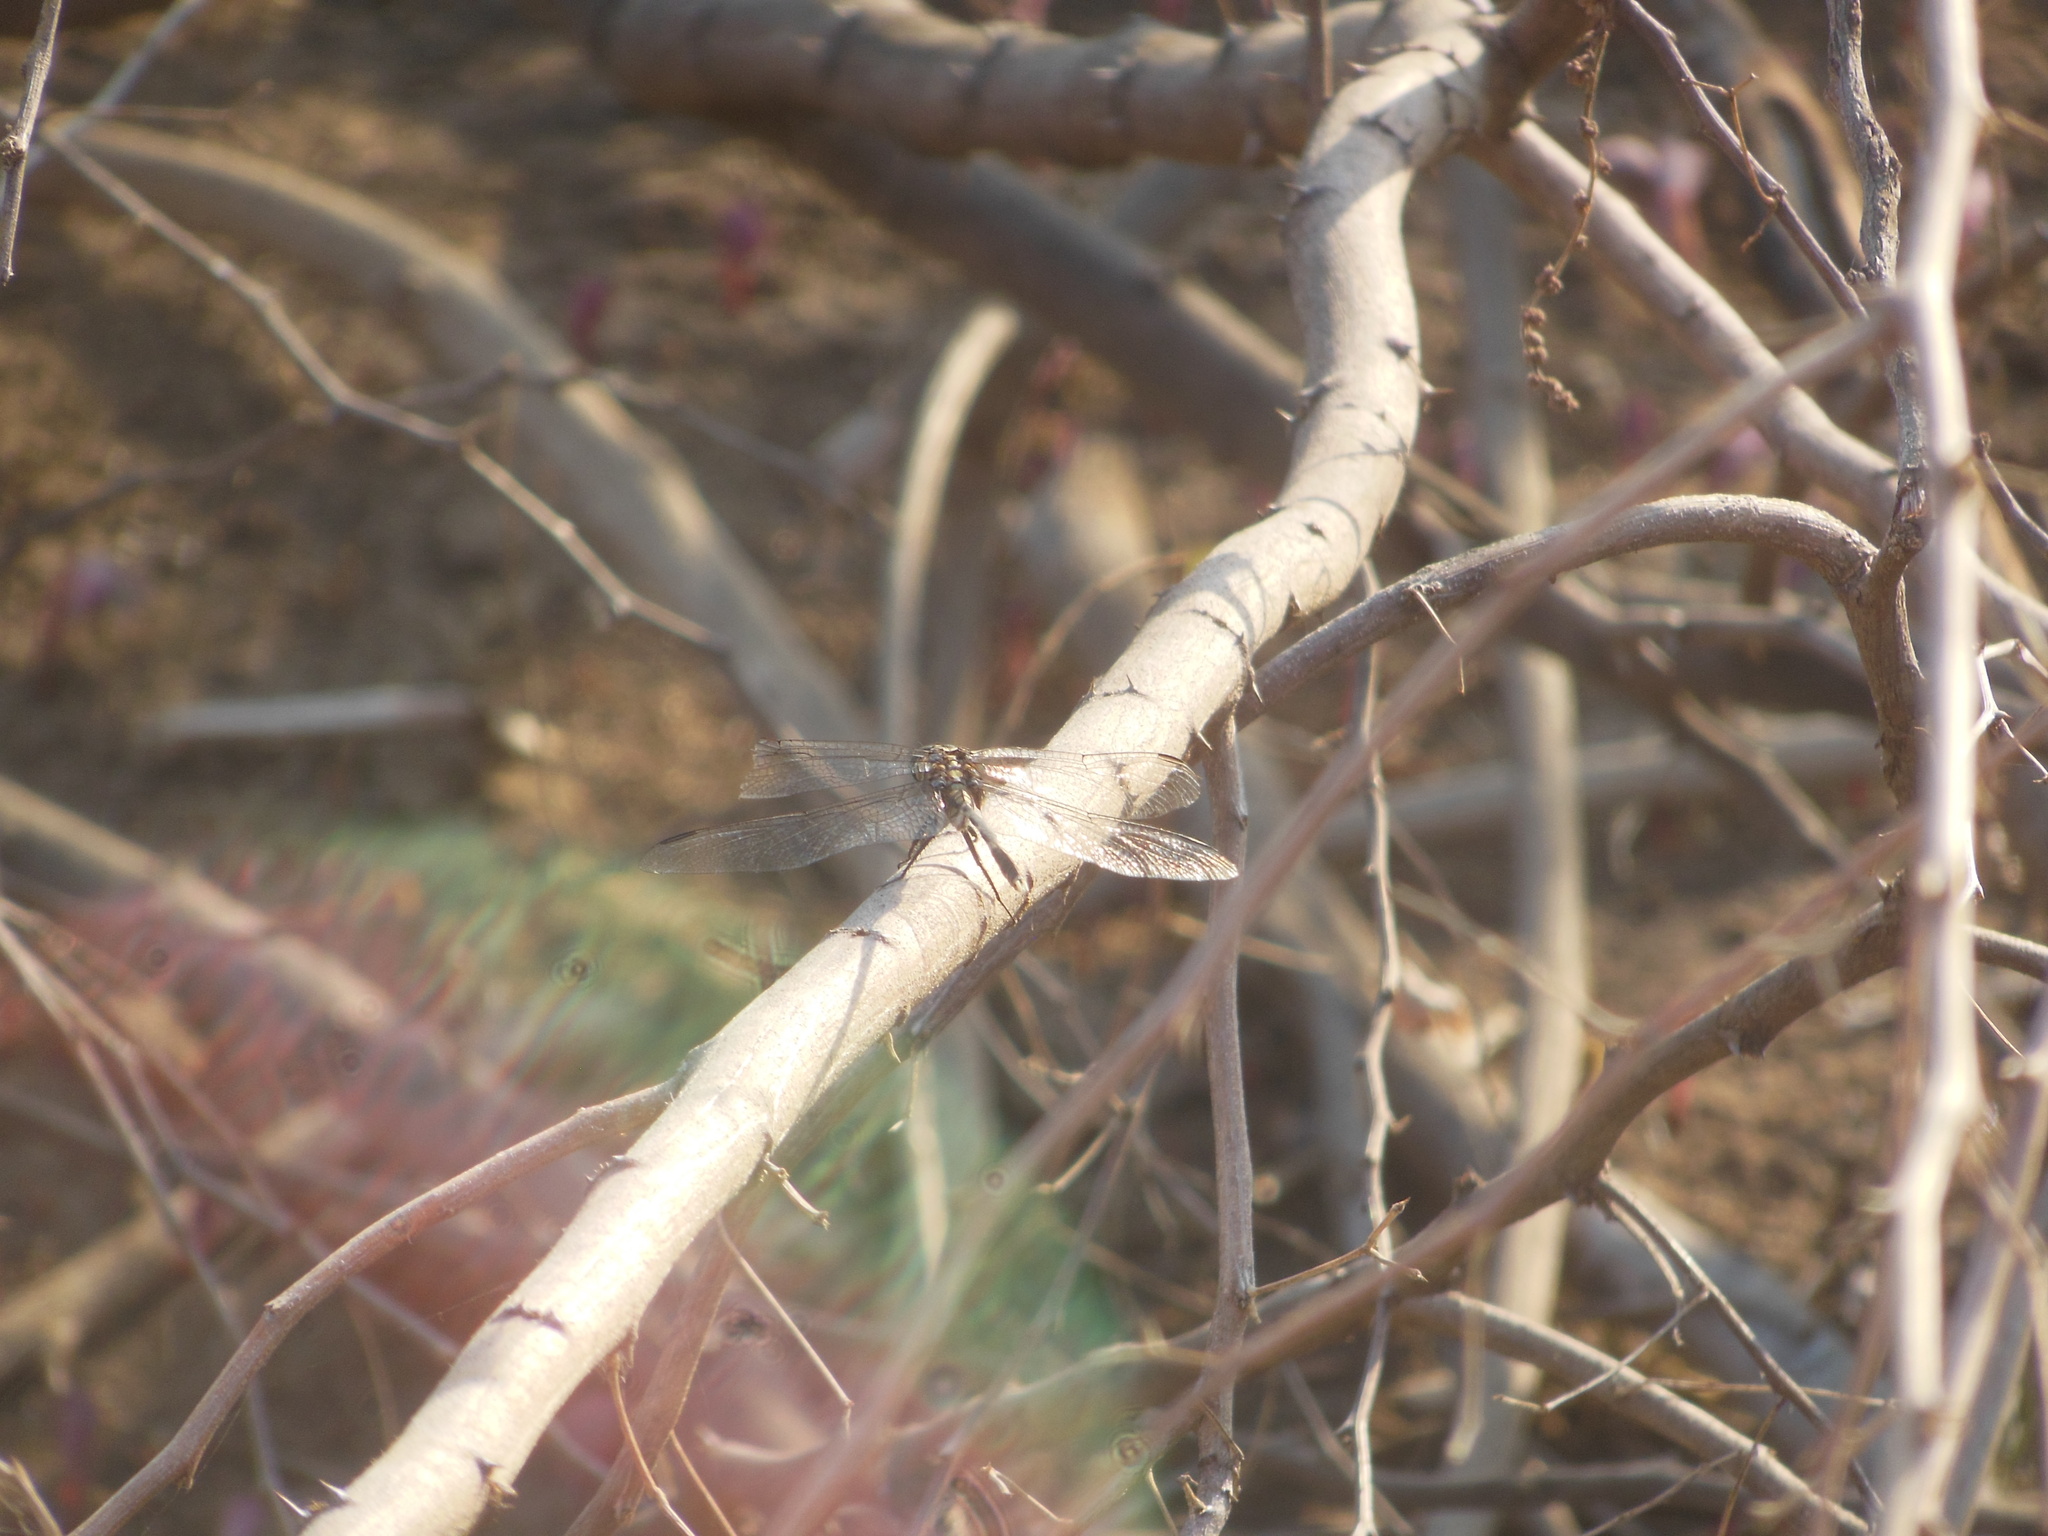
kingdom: Animalia
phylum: Arthropoda
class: Insecta
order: Odonata
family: Libellulidae
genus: Orthetrum
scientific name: Orthetrum sabina
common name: Slender skimmer
